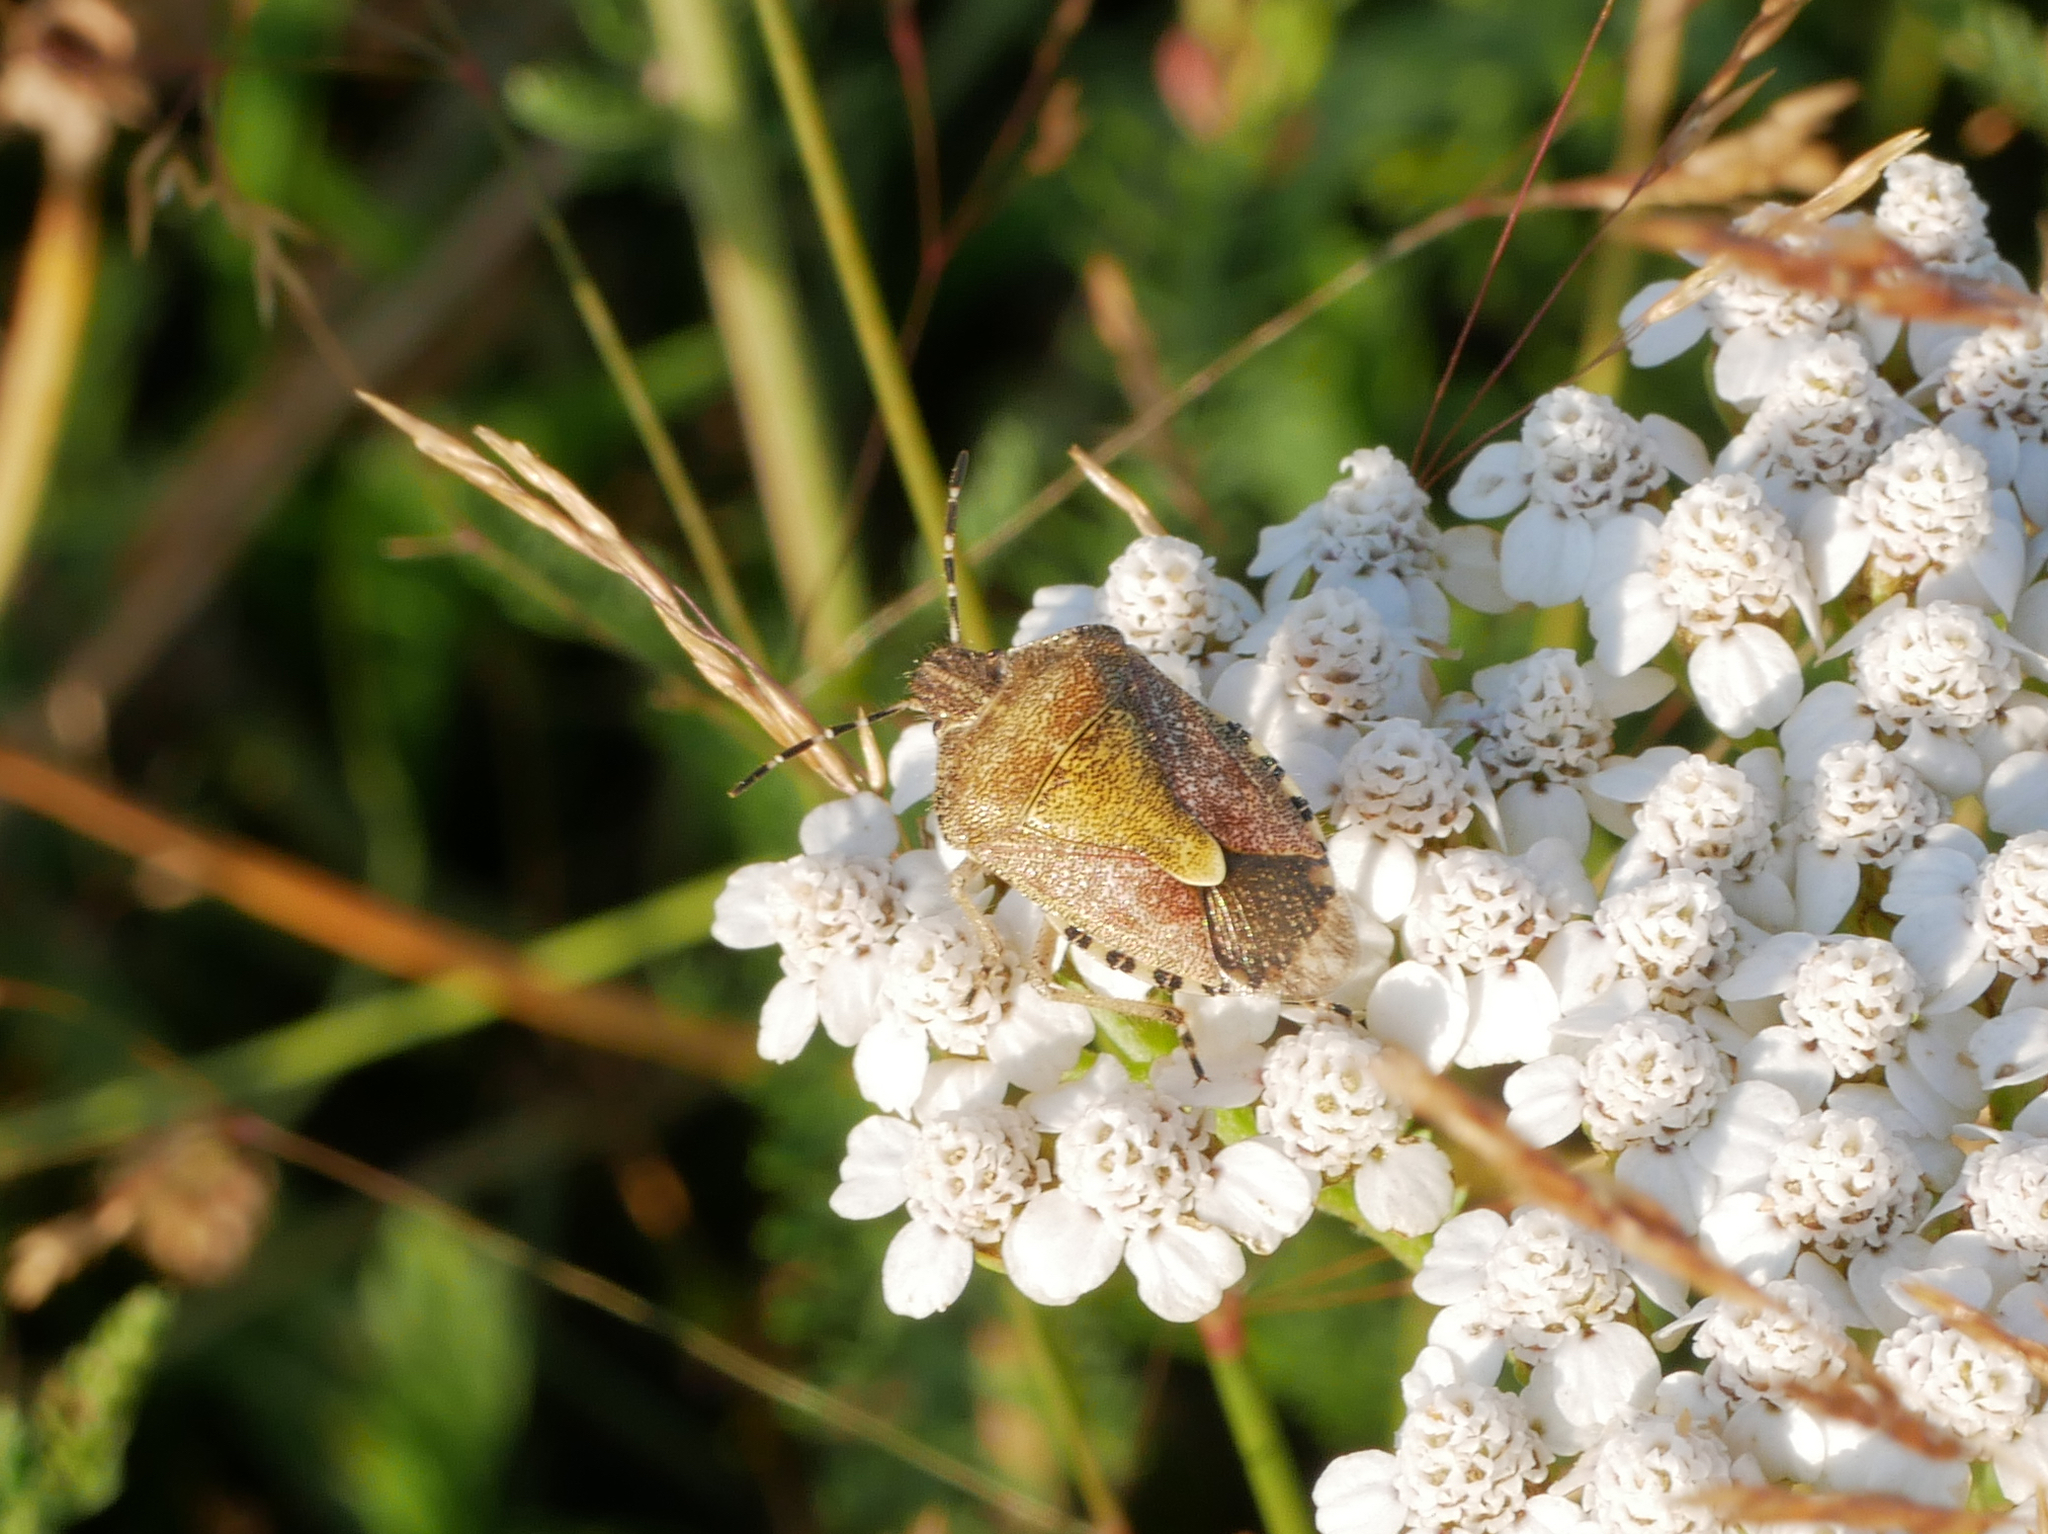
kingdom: Animalia
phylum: Arthropoda
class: Insecta
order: Hemiptera
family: Pentatomidae
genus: Dolycoris
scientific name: Dolycoris baccarum
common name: Sloe bug
